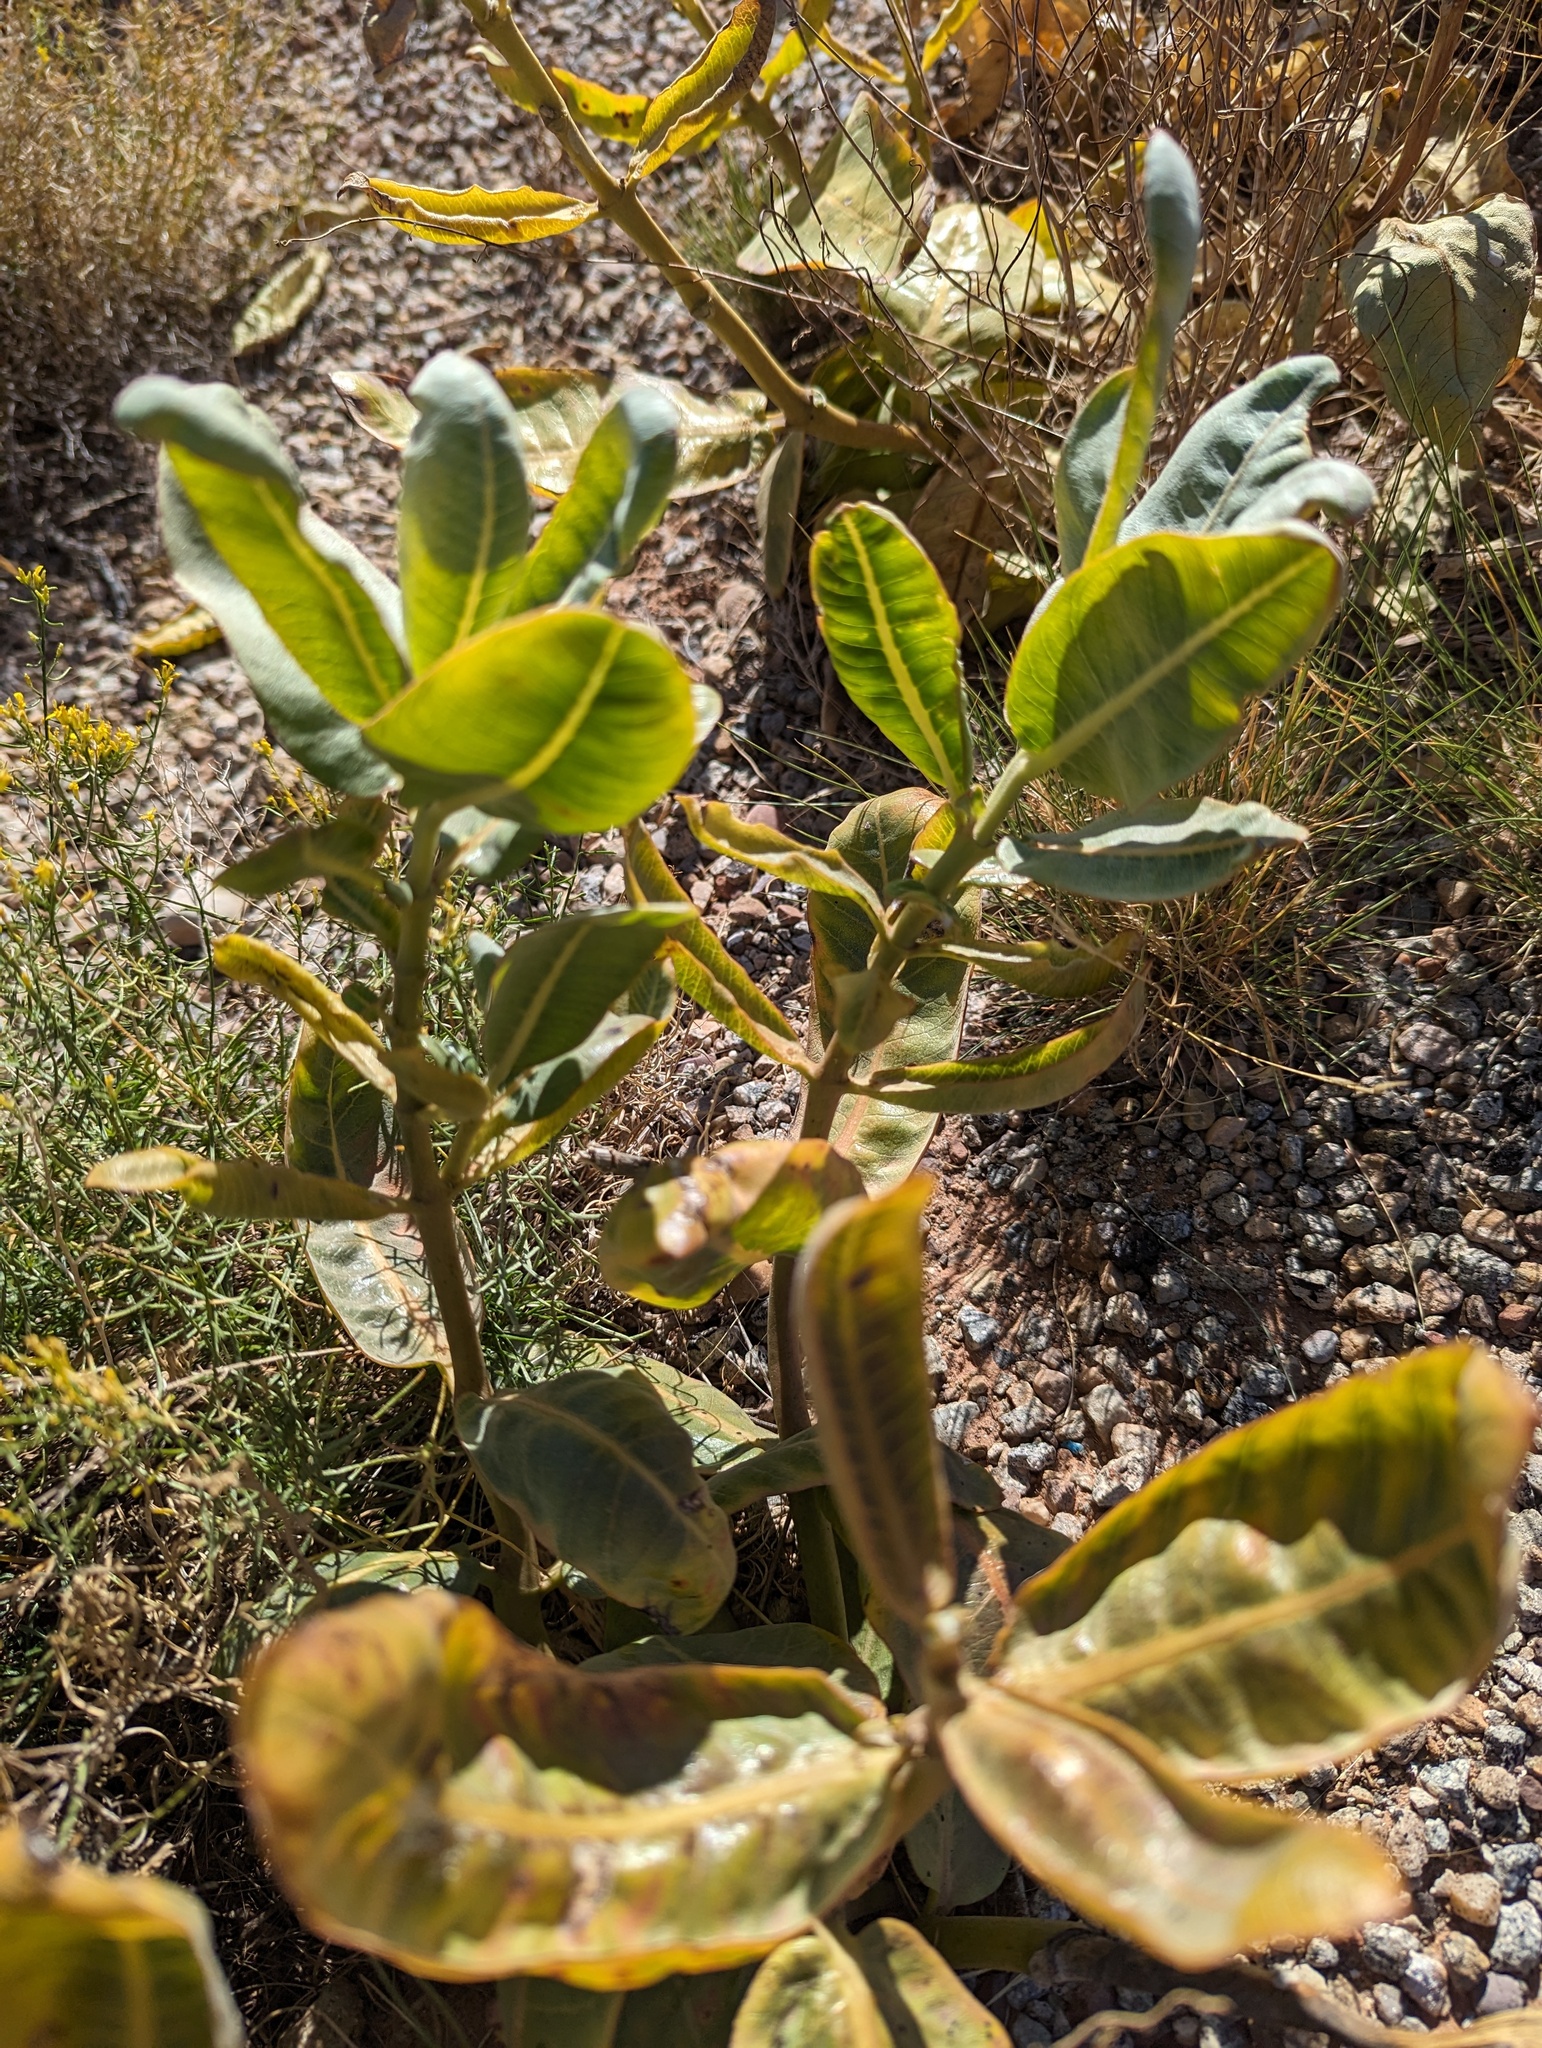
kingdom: Plantae
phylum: Tracheophyta
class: Magnoliopsida
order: Gentianales
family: Apocynaceae
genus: Asclepias
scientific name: Asclepias latifolia
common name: Broadleaf milkweed
